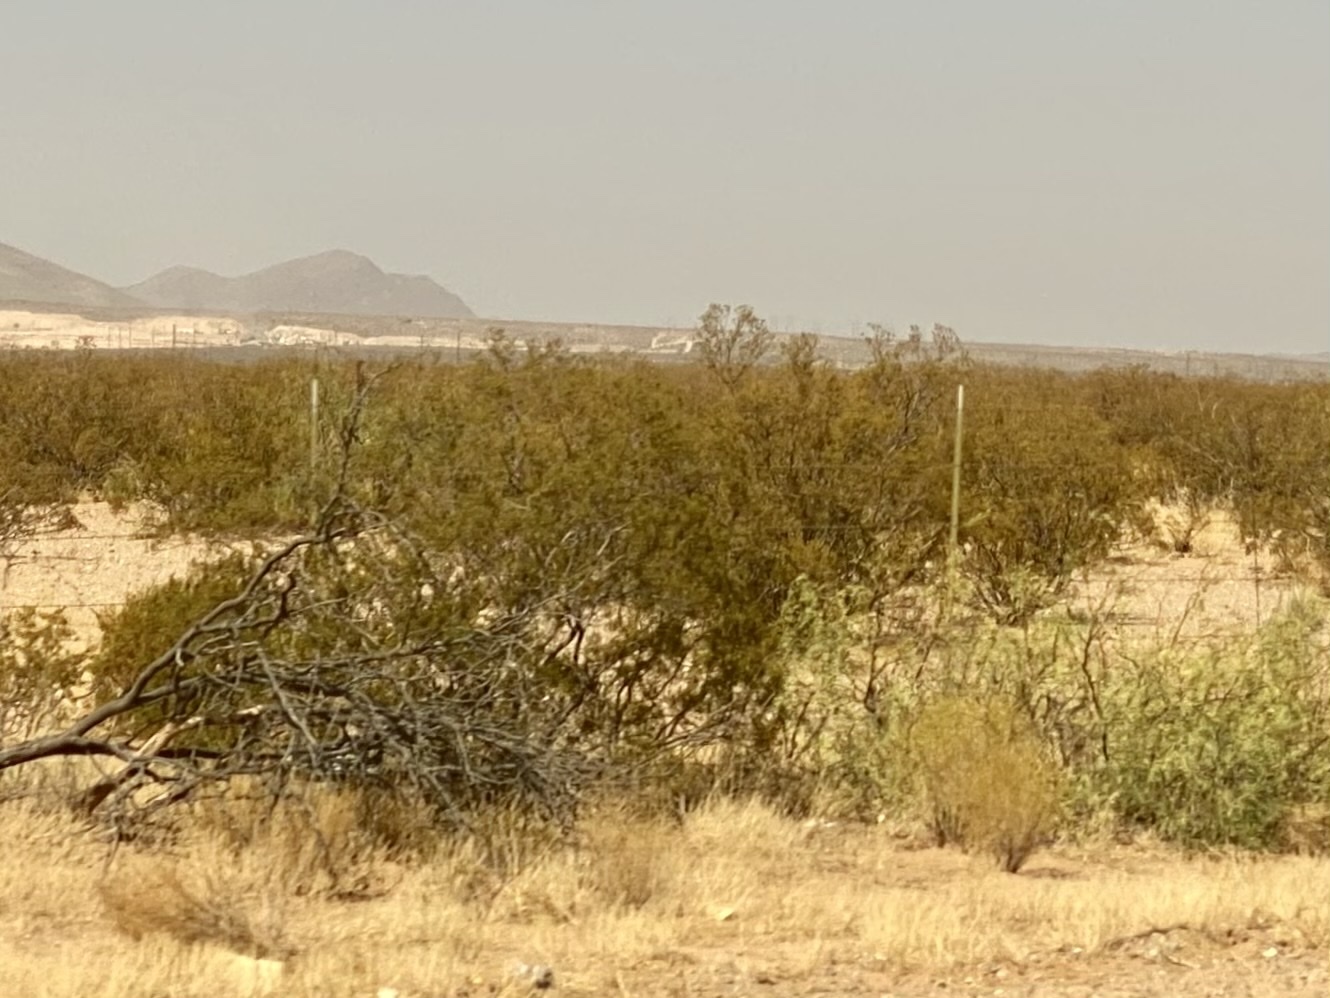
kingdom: Plantae
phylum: Tracheophyta
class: Magnoliopsida
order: Zygophyllales
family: Zygophyllaceae
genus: Larrea
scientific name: Larrea tridentata
